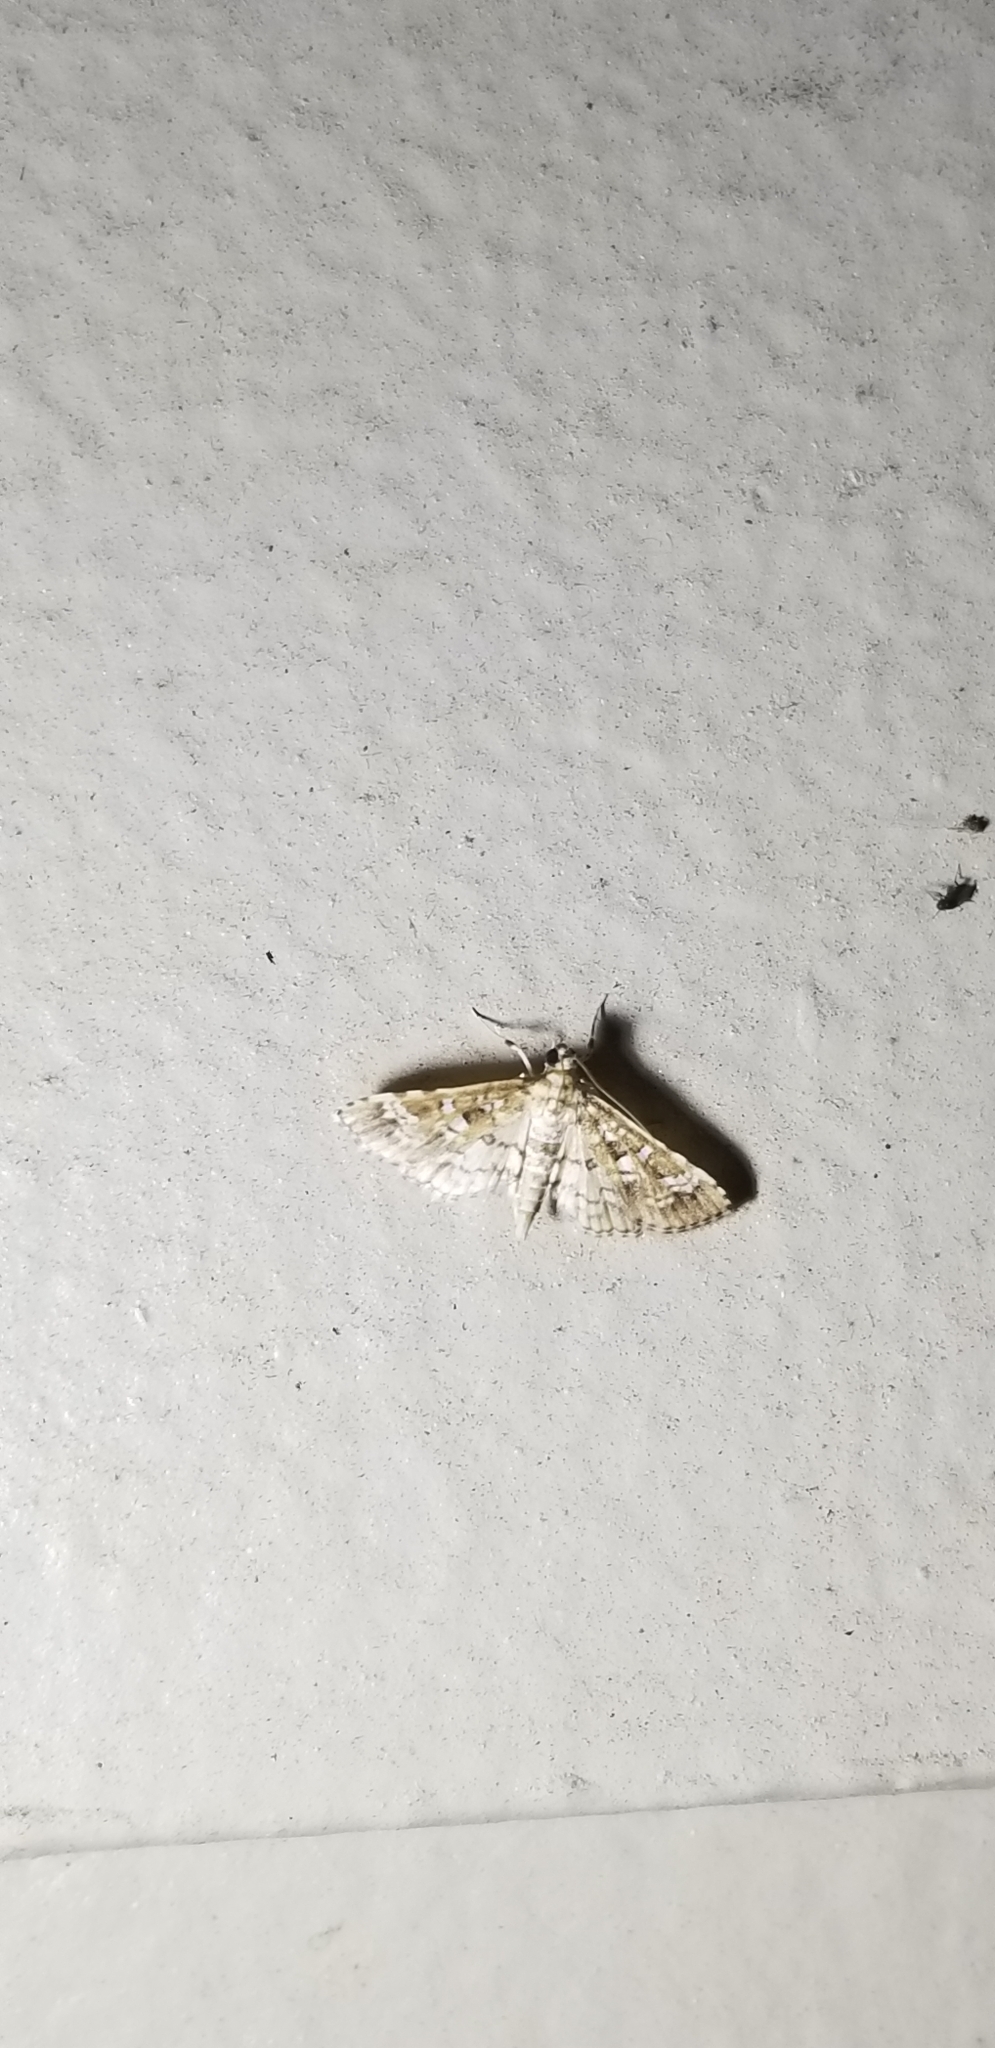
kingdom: Animalia
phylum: Arthropoda
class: Insecta
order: Lepidoptera
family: Crambidae
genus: Samea
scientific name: Samea multiplicalis
